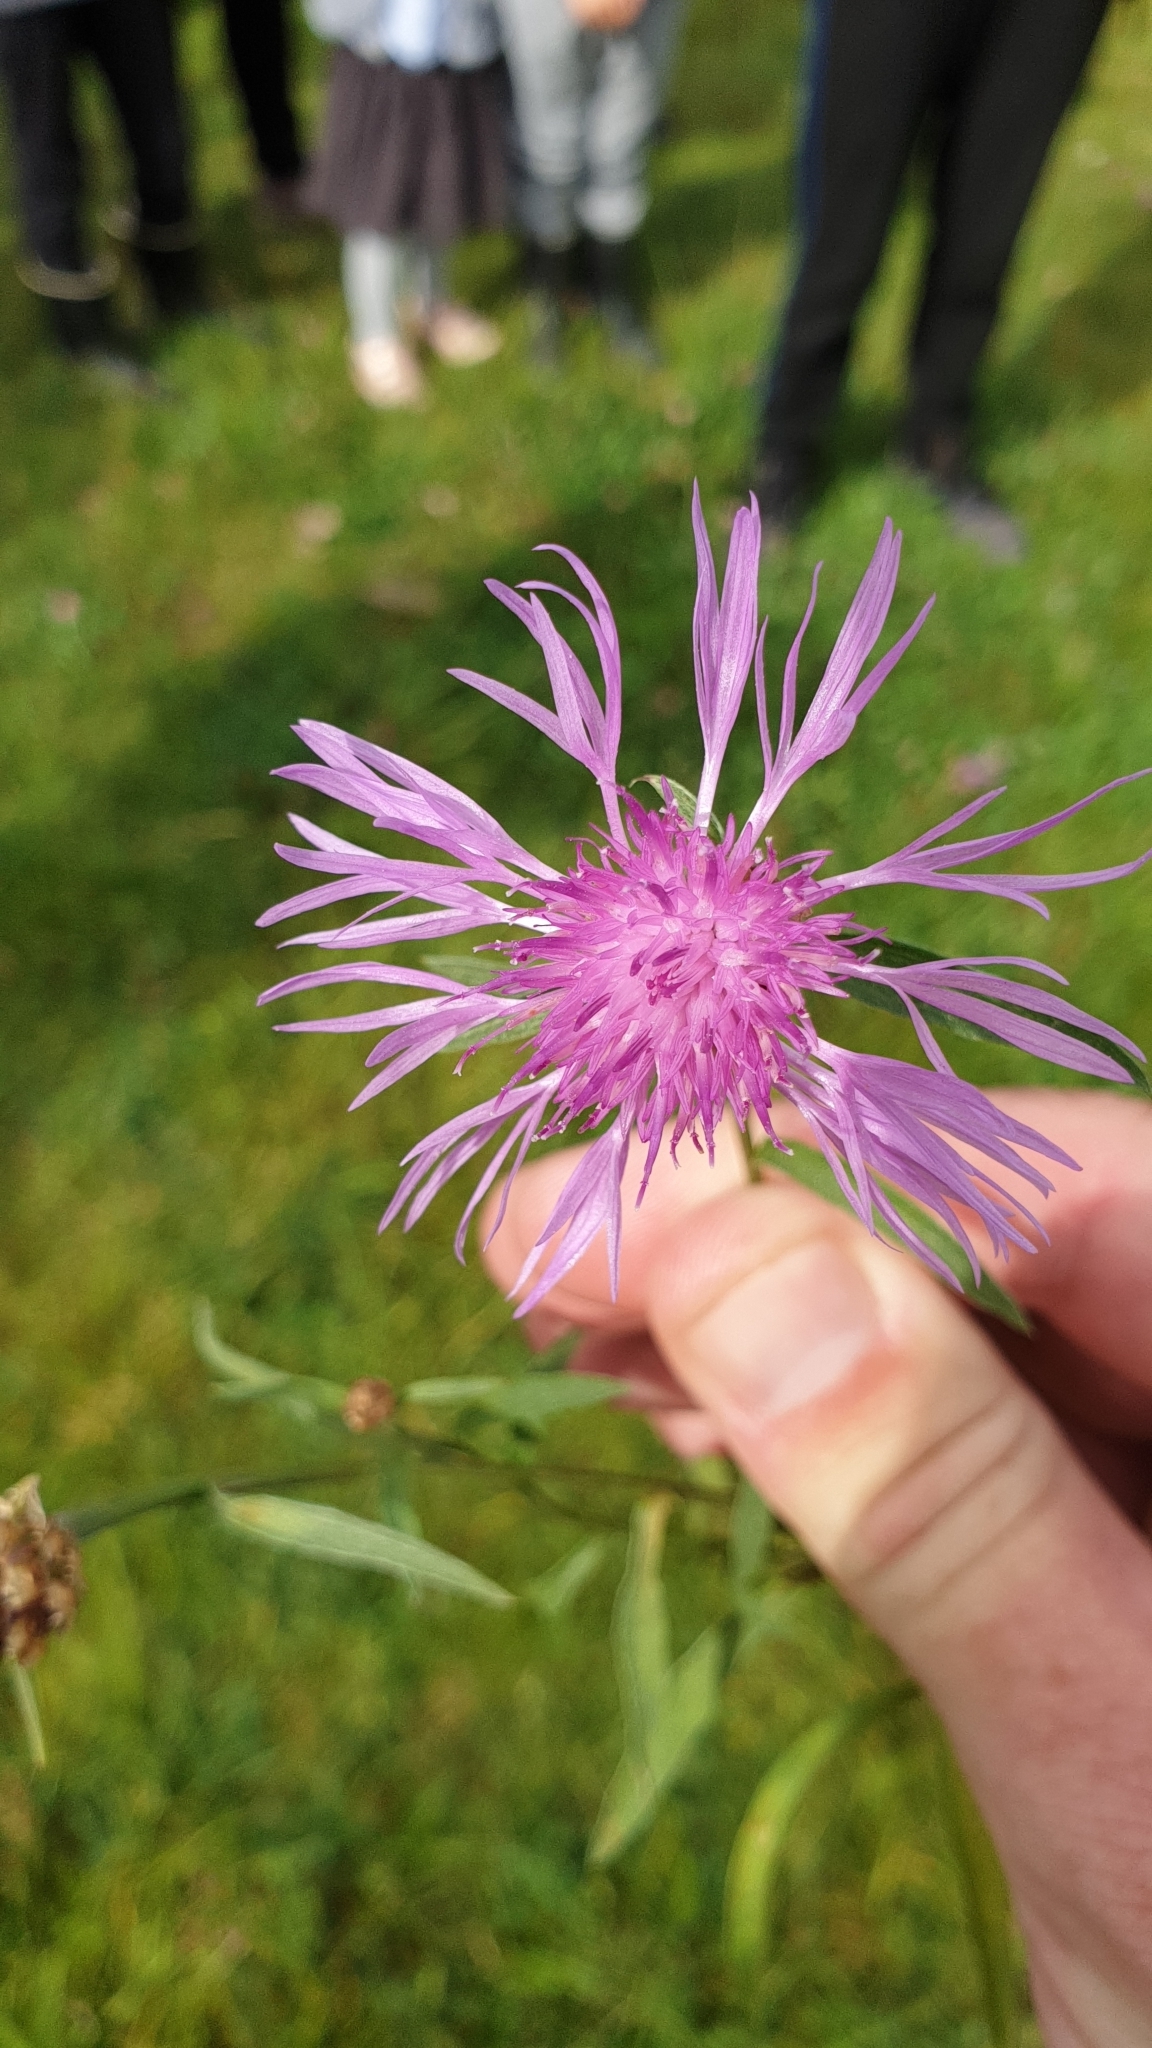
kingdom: Plantae
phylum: Tracheophyta
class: Magnoliopsida
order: Asterales
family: Asteraceae
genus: Centaurea
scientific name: Centaurea jacea
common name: Brown knapweed
